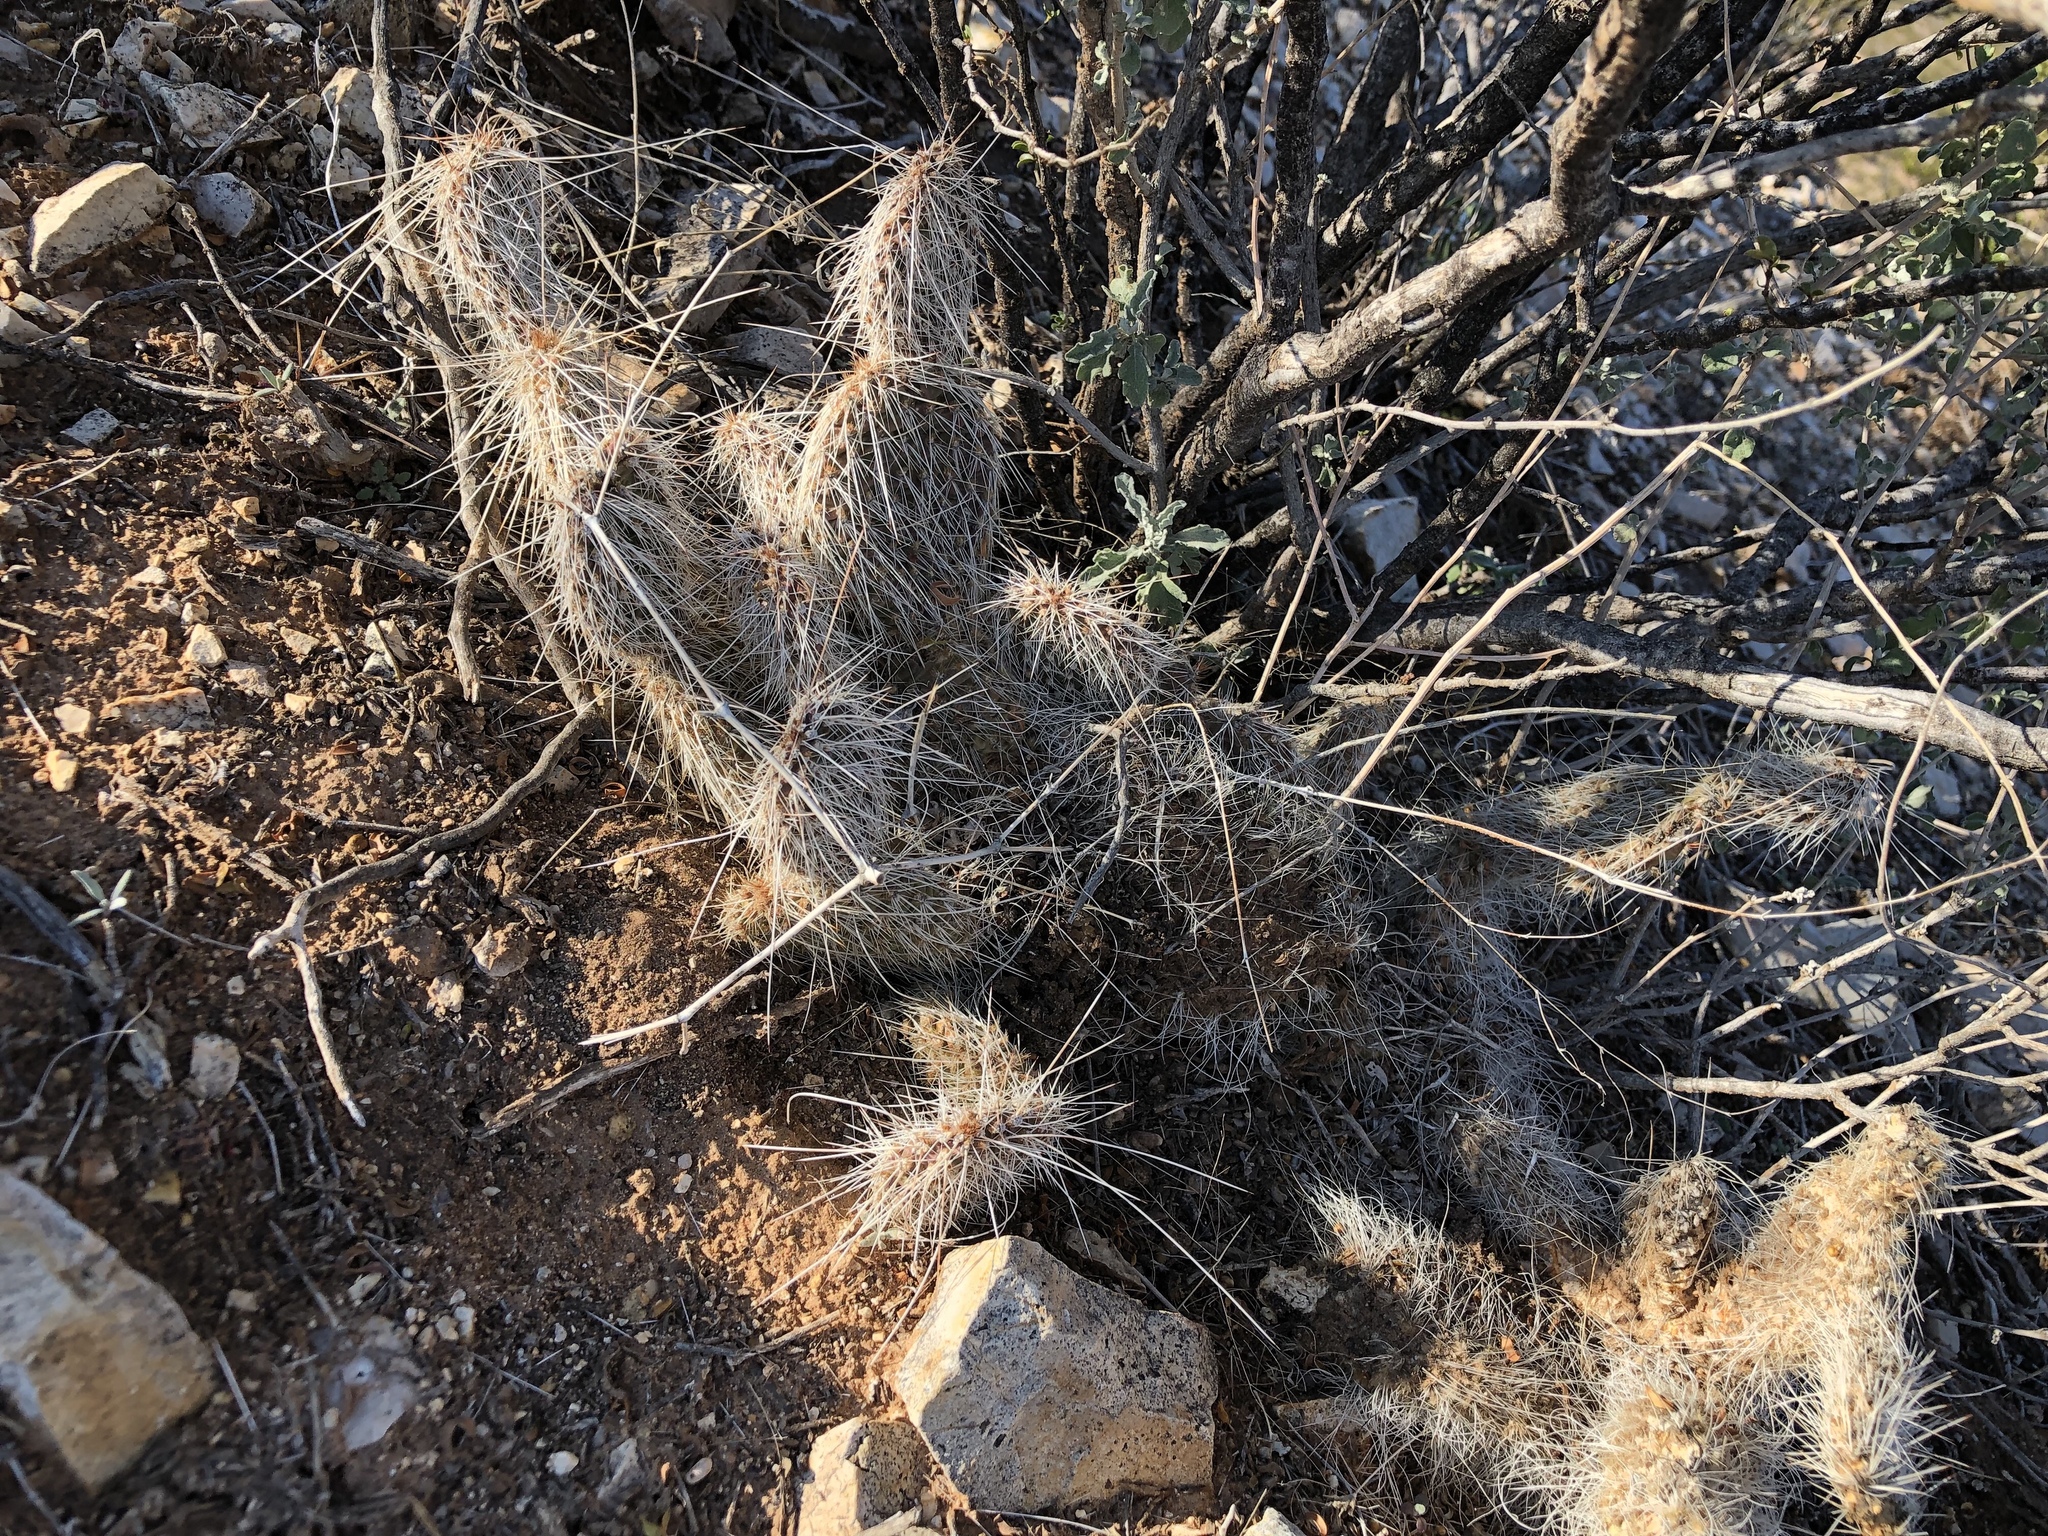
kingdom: Plantae
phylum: Tracheophyta
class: Magnoliopsida
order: Caryophyllales
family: Cactaceae
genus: Opuntia
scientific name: Opuntia polyacantha
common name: Plains prickly-pear
